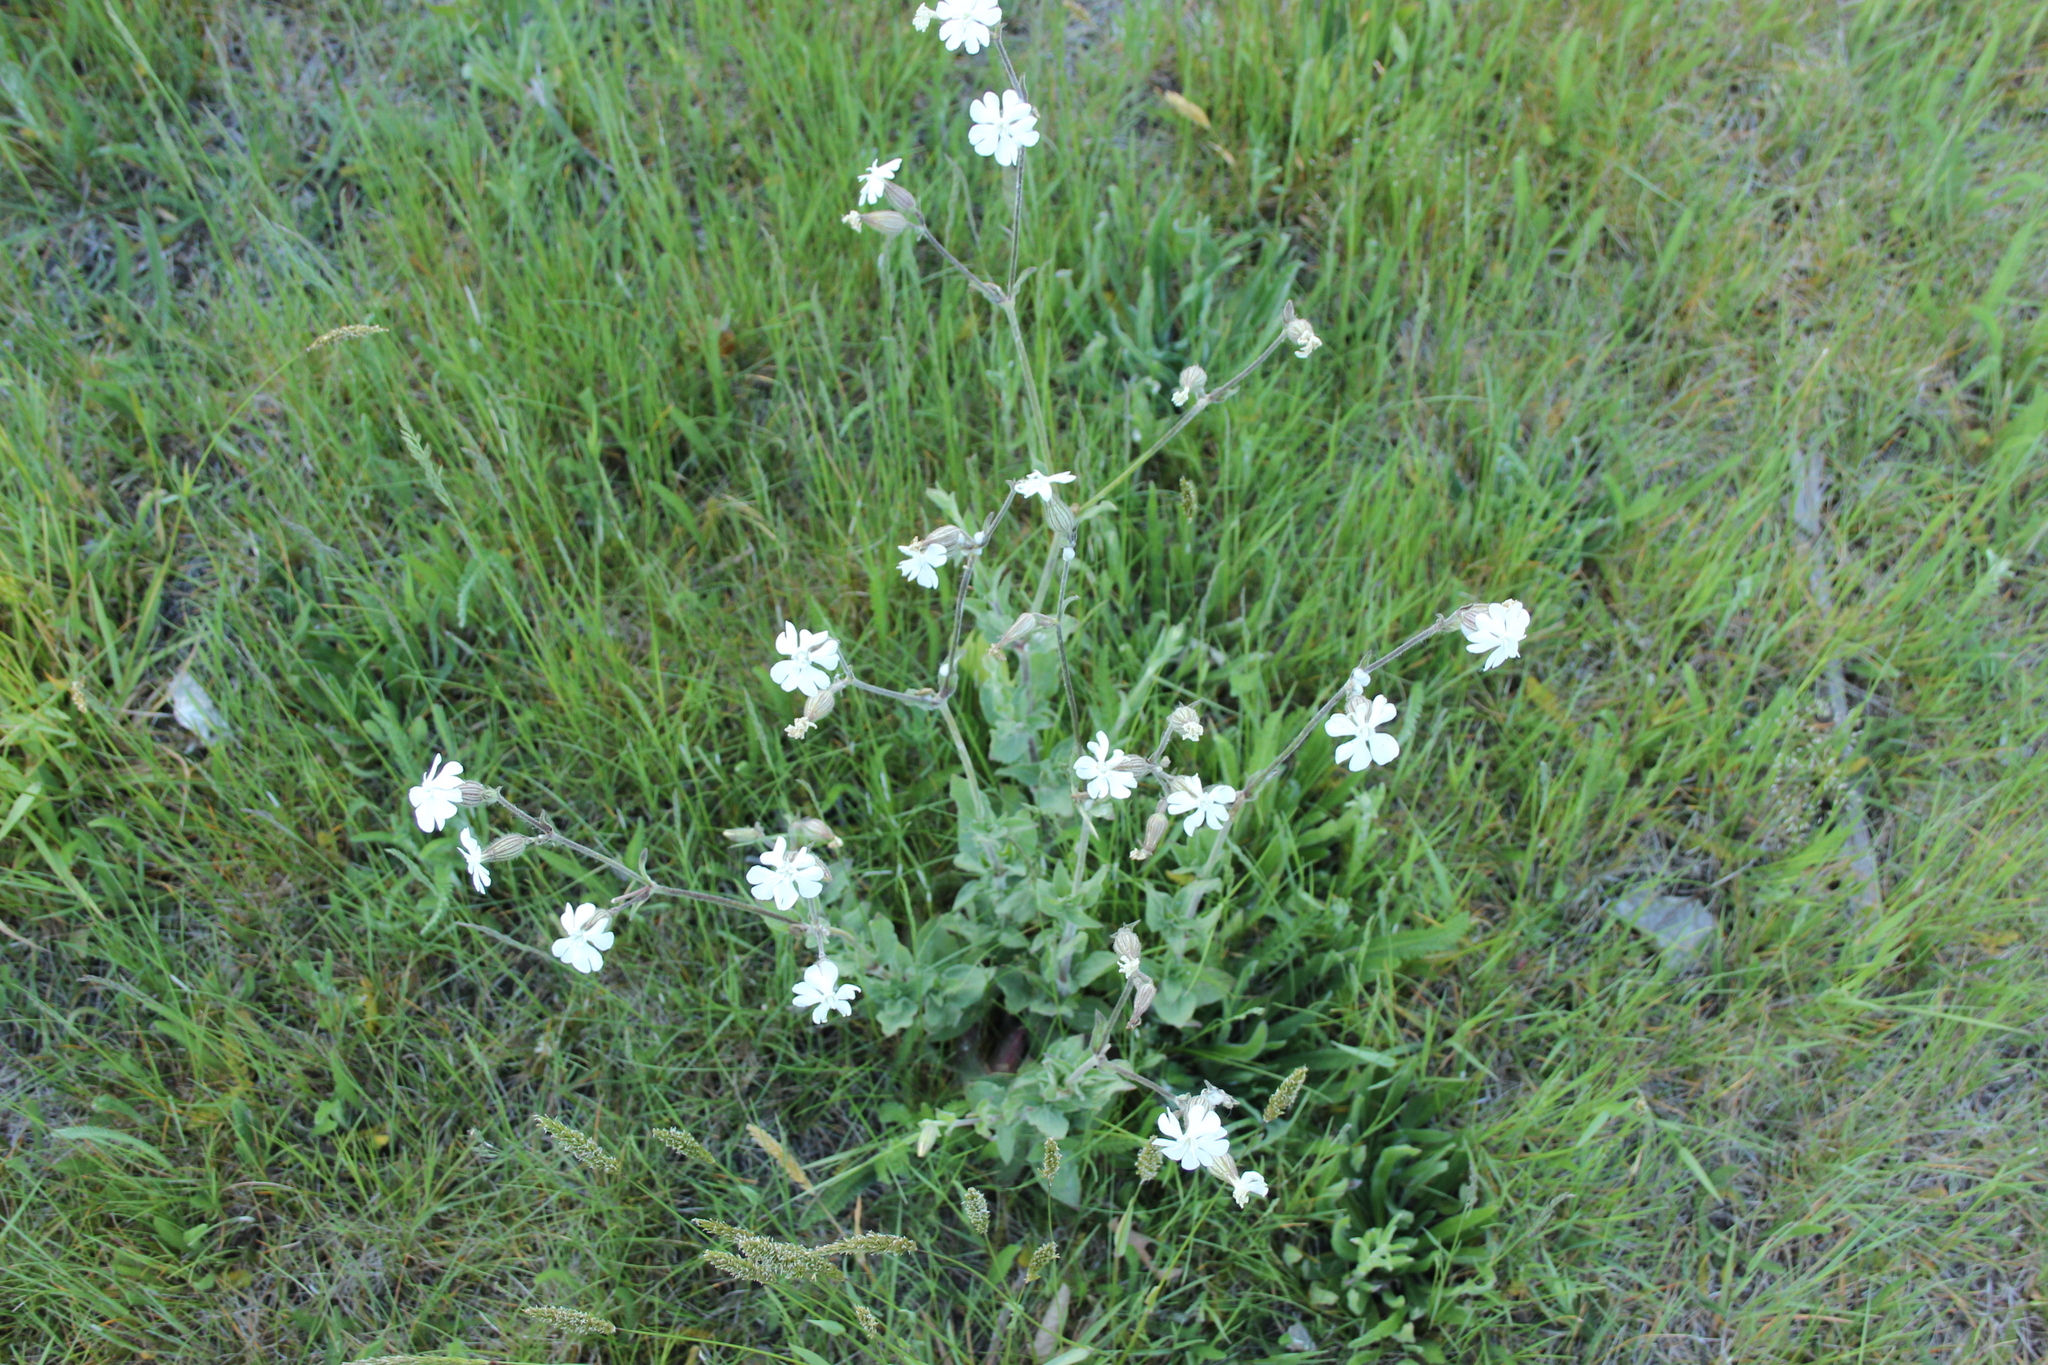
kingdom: Plantae
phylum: Tracheophyta
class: Magnoliopsida
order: Caryophyllales
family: Caryophyllaceae
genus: Silene
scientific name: Silene latifolia
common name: White campion
